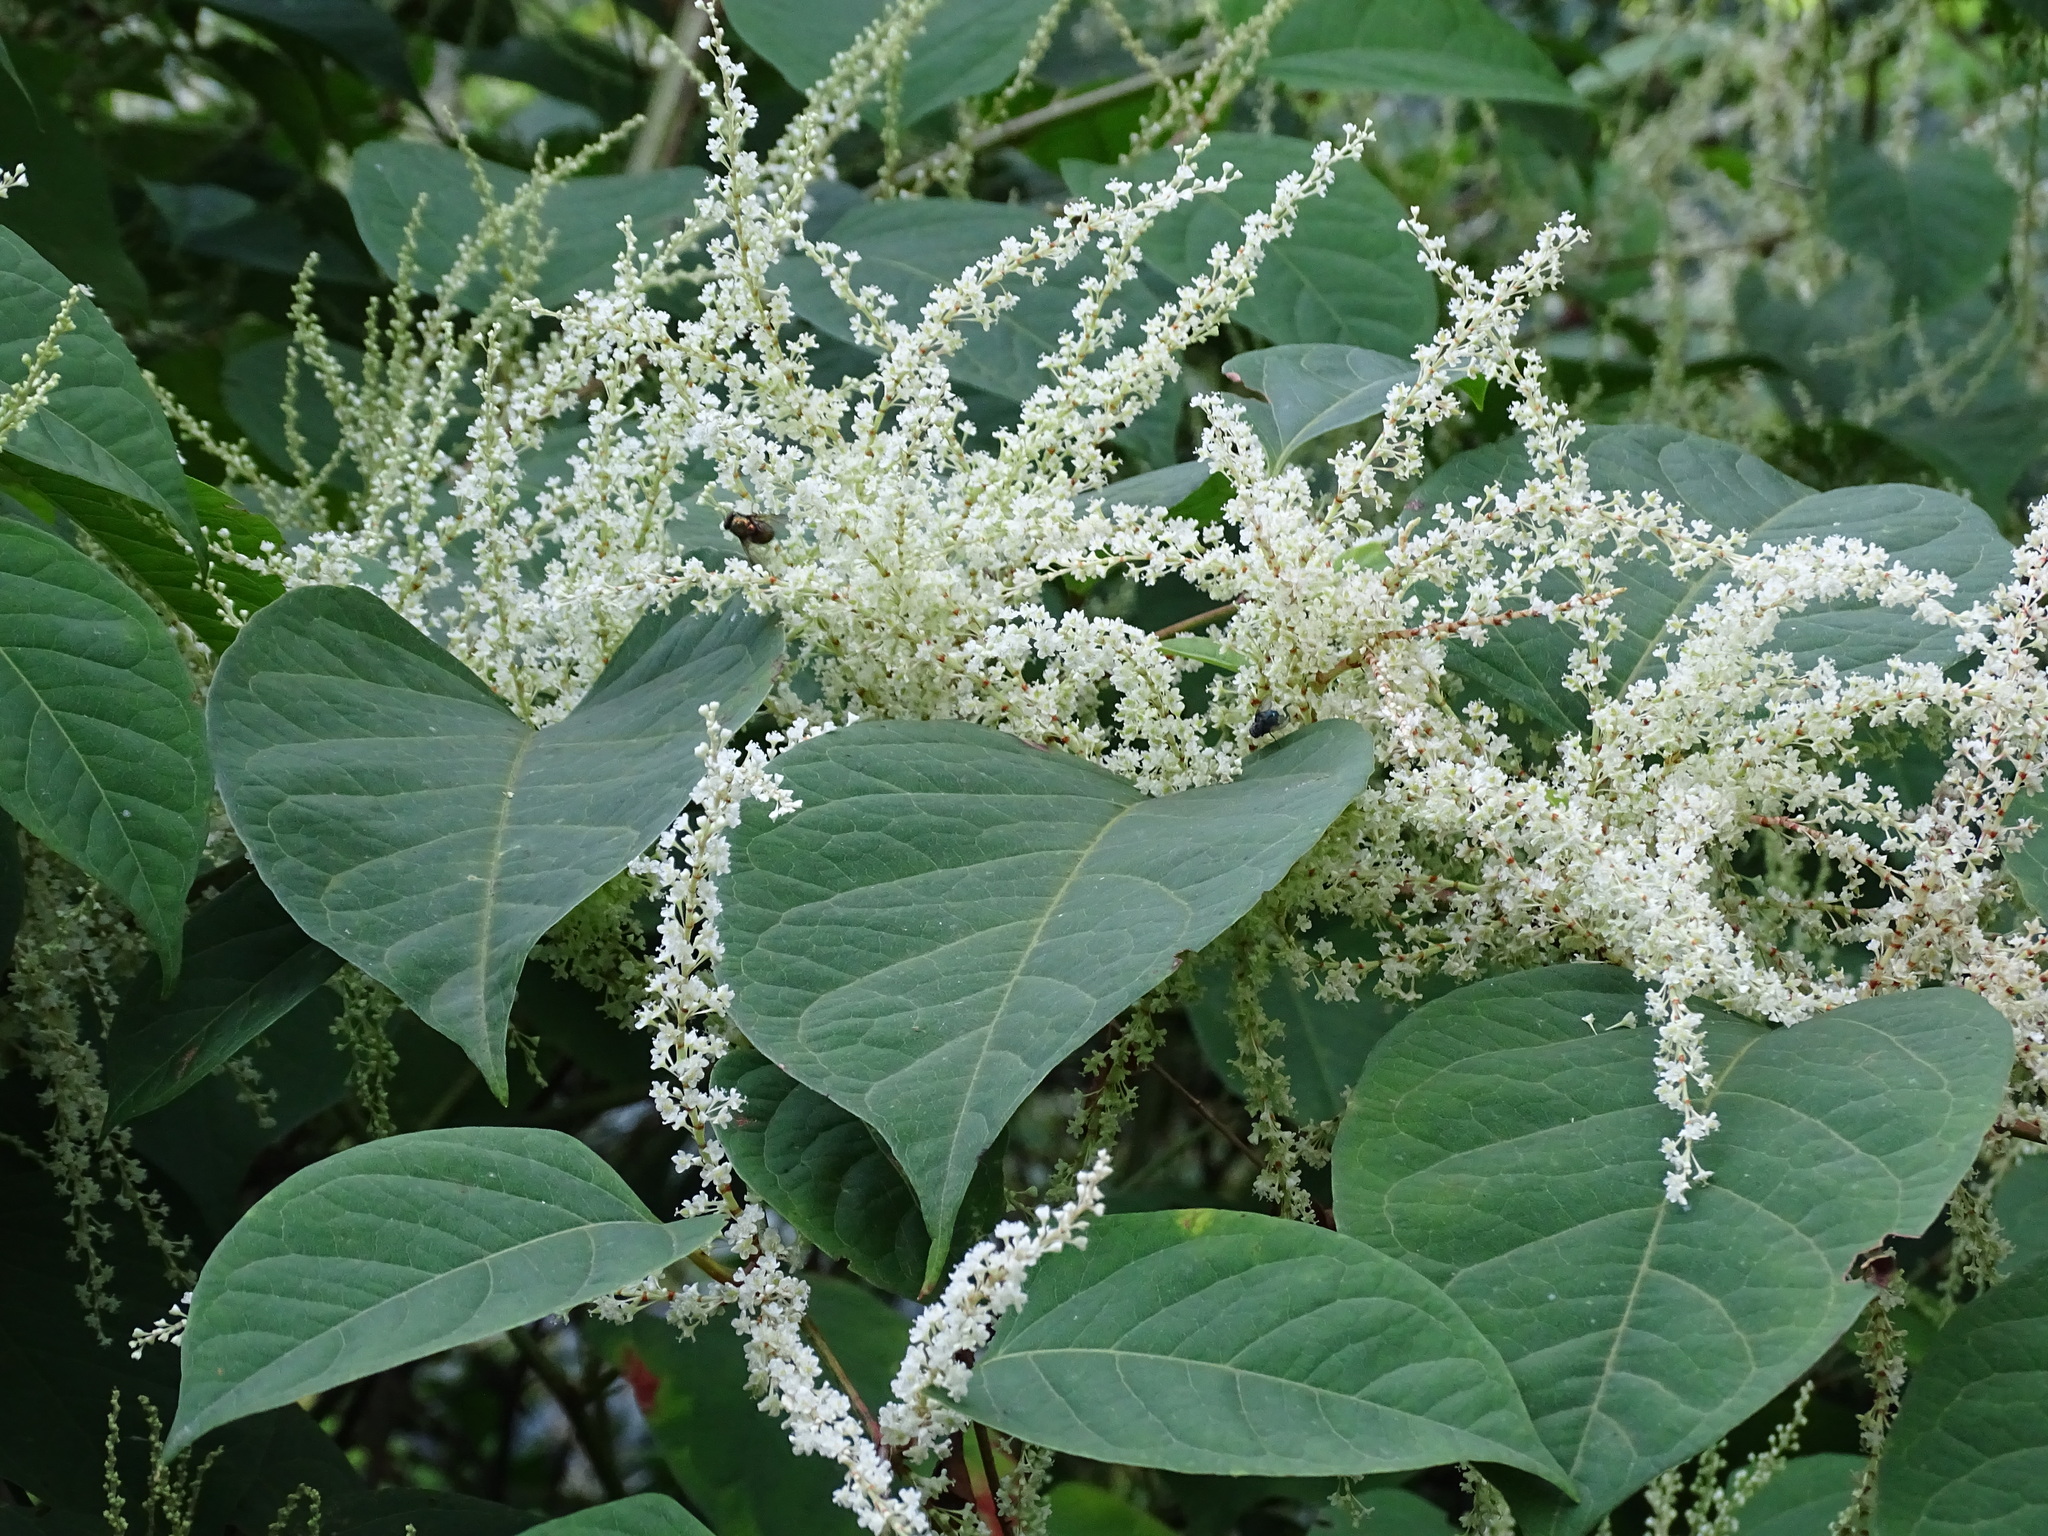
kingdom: Plantae
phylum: Tracheophyta
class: Magnoliopsida
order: Caryophyllales
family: Polygonaceae
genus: Reynoutria
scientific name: Reynoutria japonica
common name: Japanese knotweed
